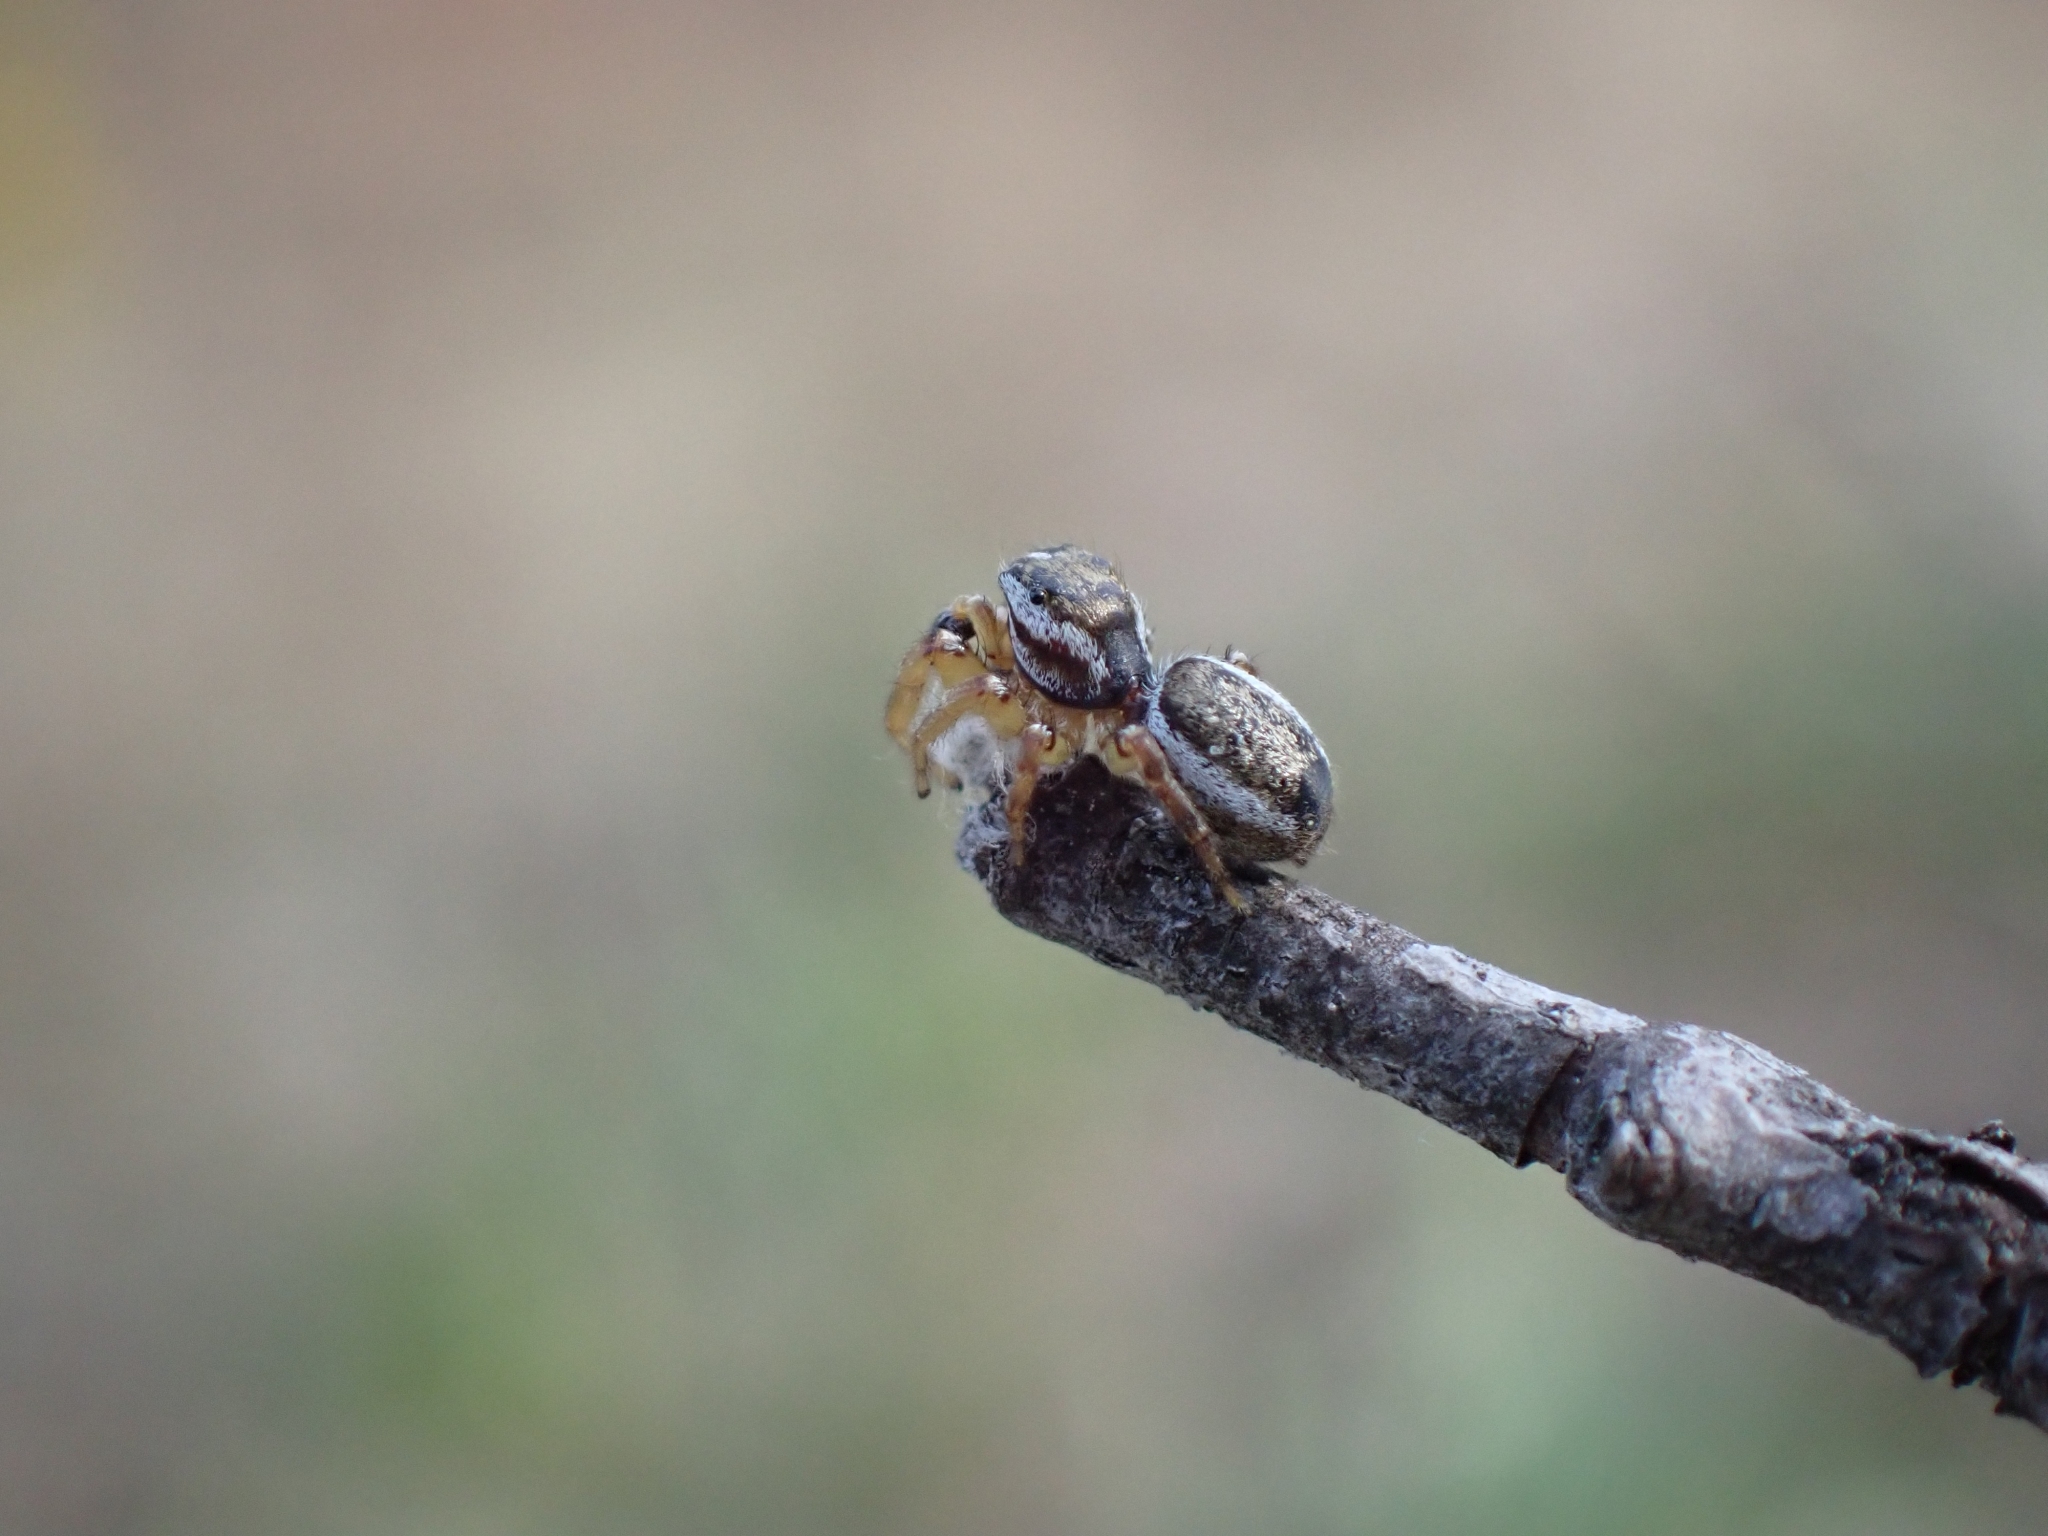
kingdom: Animalia
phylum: Arthropoda
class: Arachnida
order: Araneae
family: Salticidae
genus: Pelegrina
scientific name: Pelegrina flavipes
